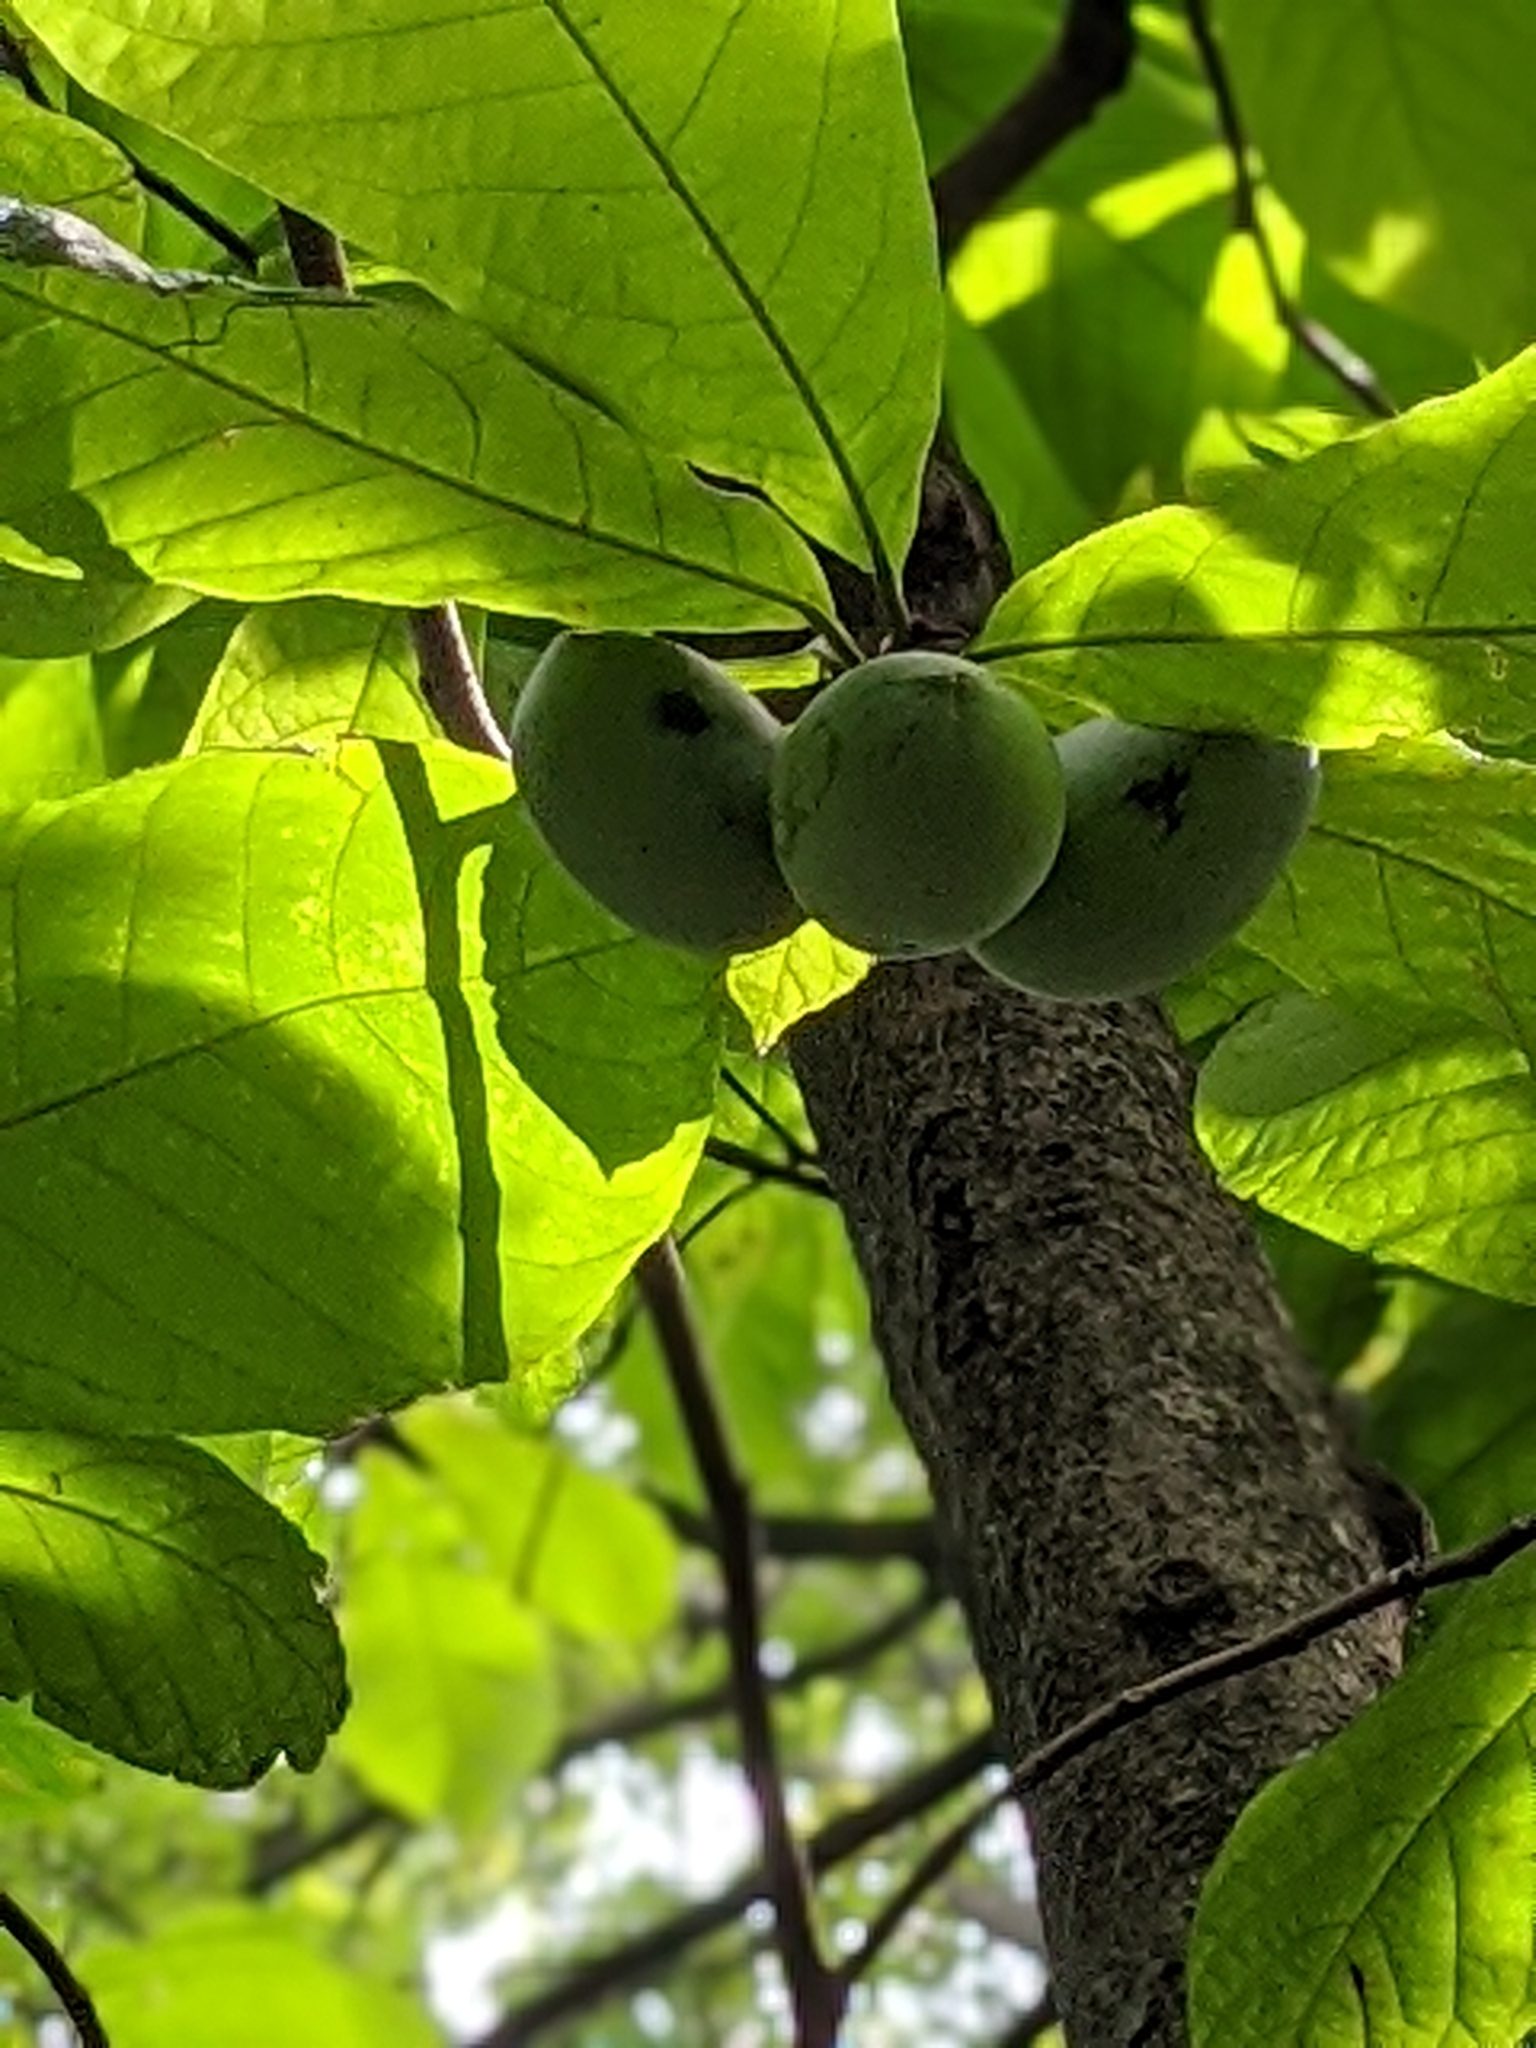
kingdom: Plantae
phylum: Tracheophyta
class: Magnoliopsida
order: Magnoliales
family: Annonaceae
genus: Asimina
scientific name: Asimina triloba
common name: Dog-banana
